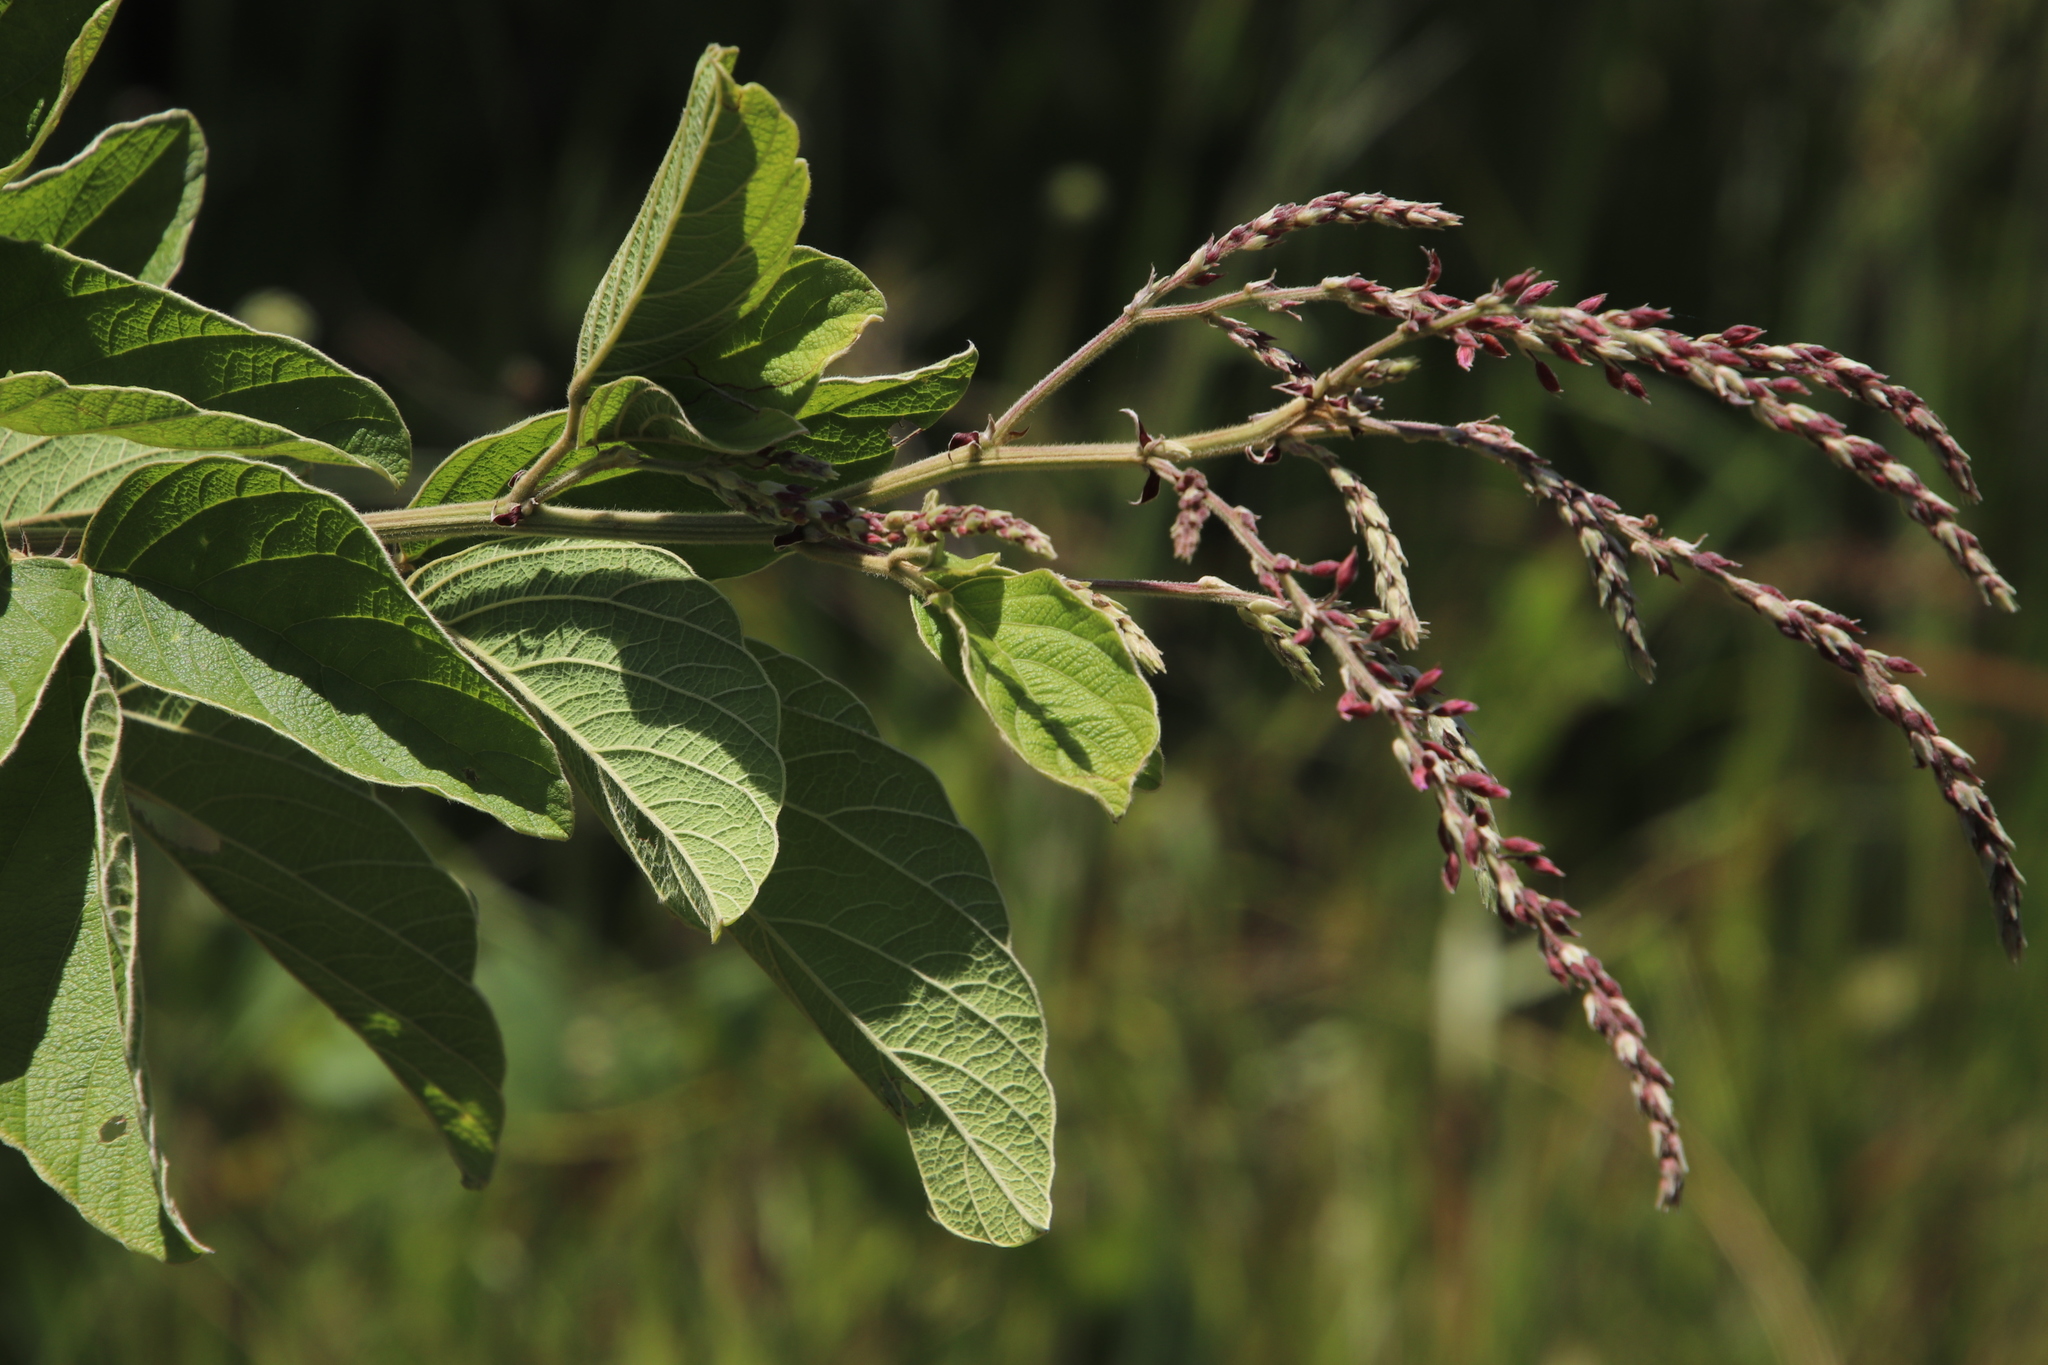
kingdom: Plantae
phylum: Tracheophyta
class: Magnoliopsida
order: Fabales
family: Fabaceae
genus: Pseudarthria
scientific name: Pseudarthria hookeri
